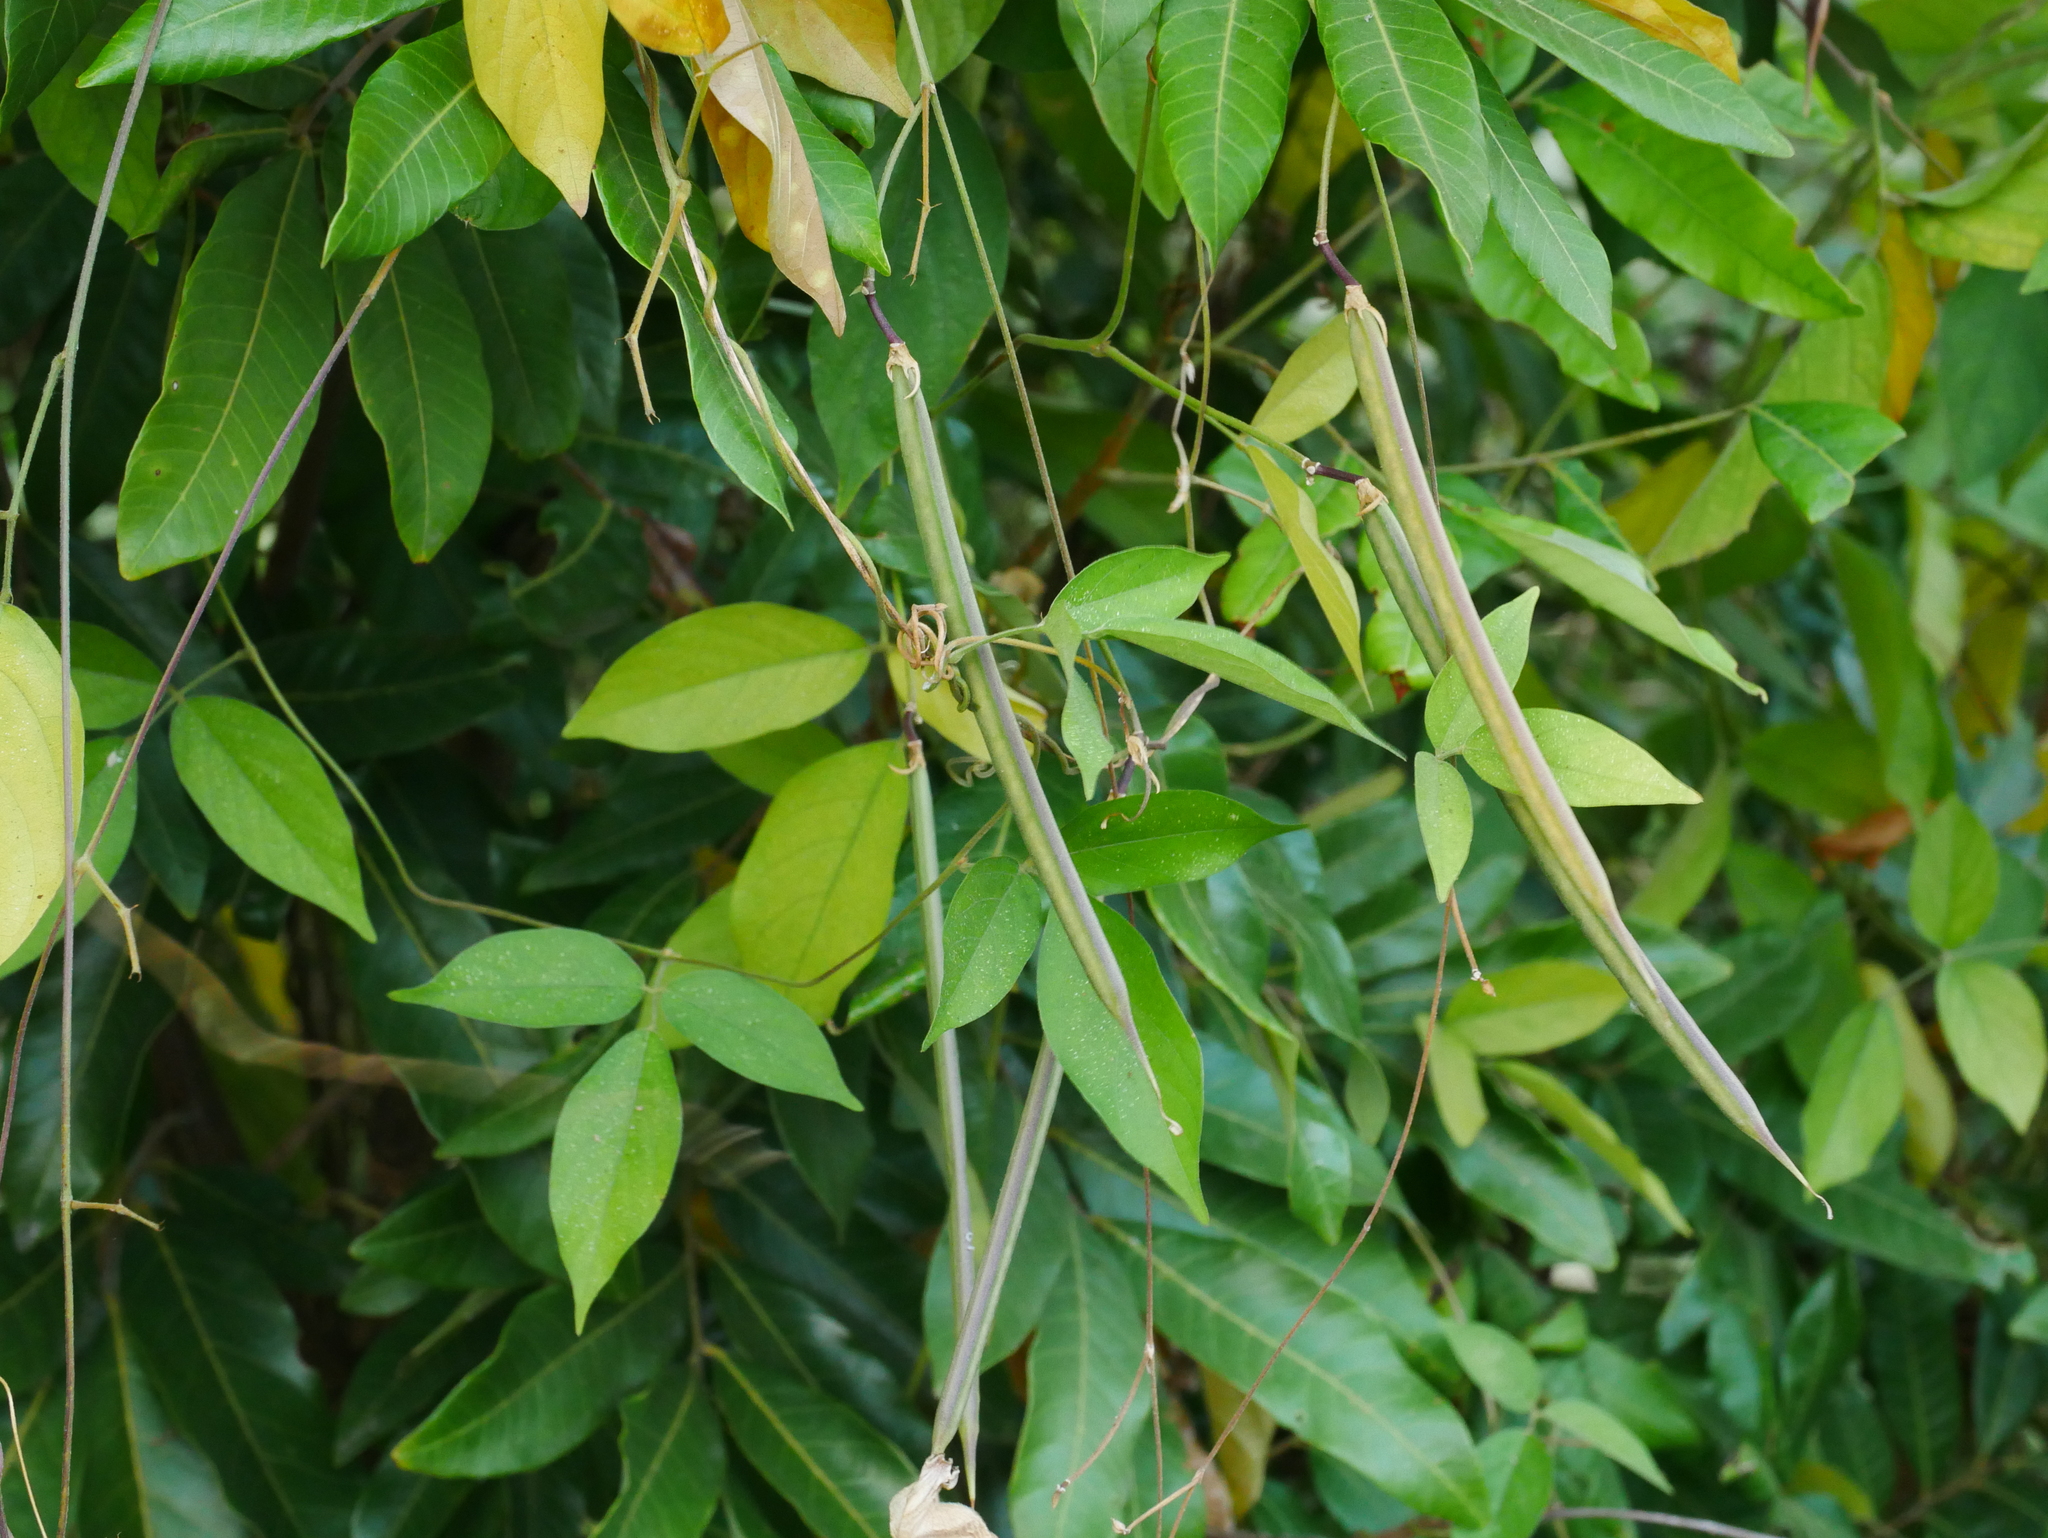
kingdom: Plantae
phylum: Tracheophyta
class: Magnoliopsida
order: Fabales
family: Fabaceae
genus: Centrosema
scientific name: Centrosema pubescens
